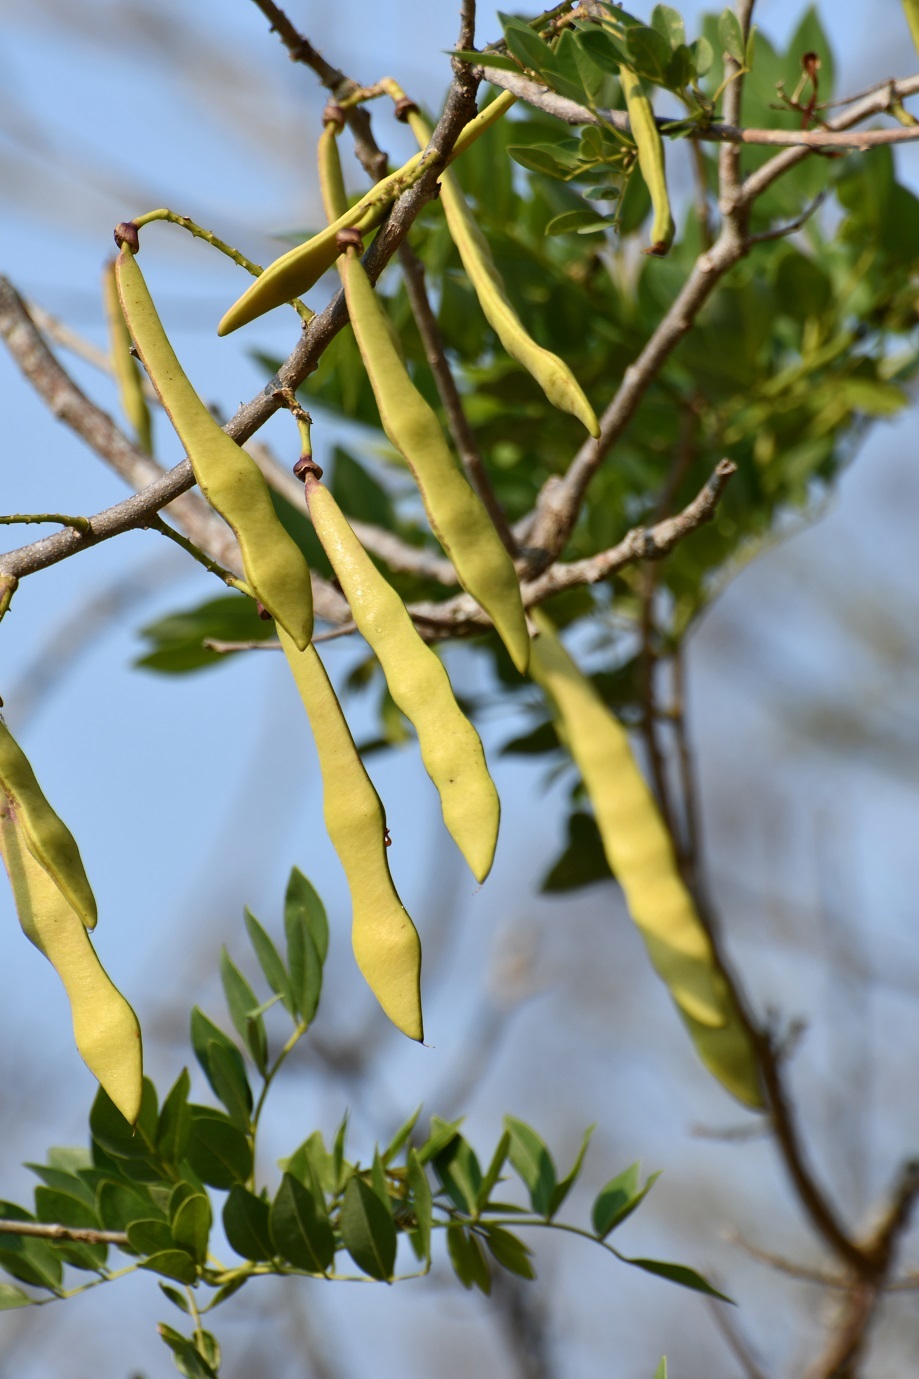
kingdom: Plantae
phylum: Tracheophyta
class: Magnoliopsida
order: Fabales
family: Fabaceae
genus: Gliricidia
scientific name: Gliricidia sepium
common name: Quickstick
